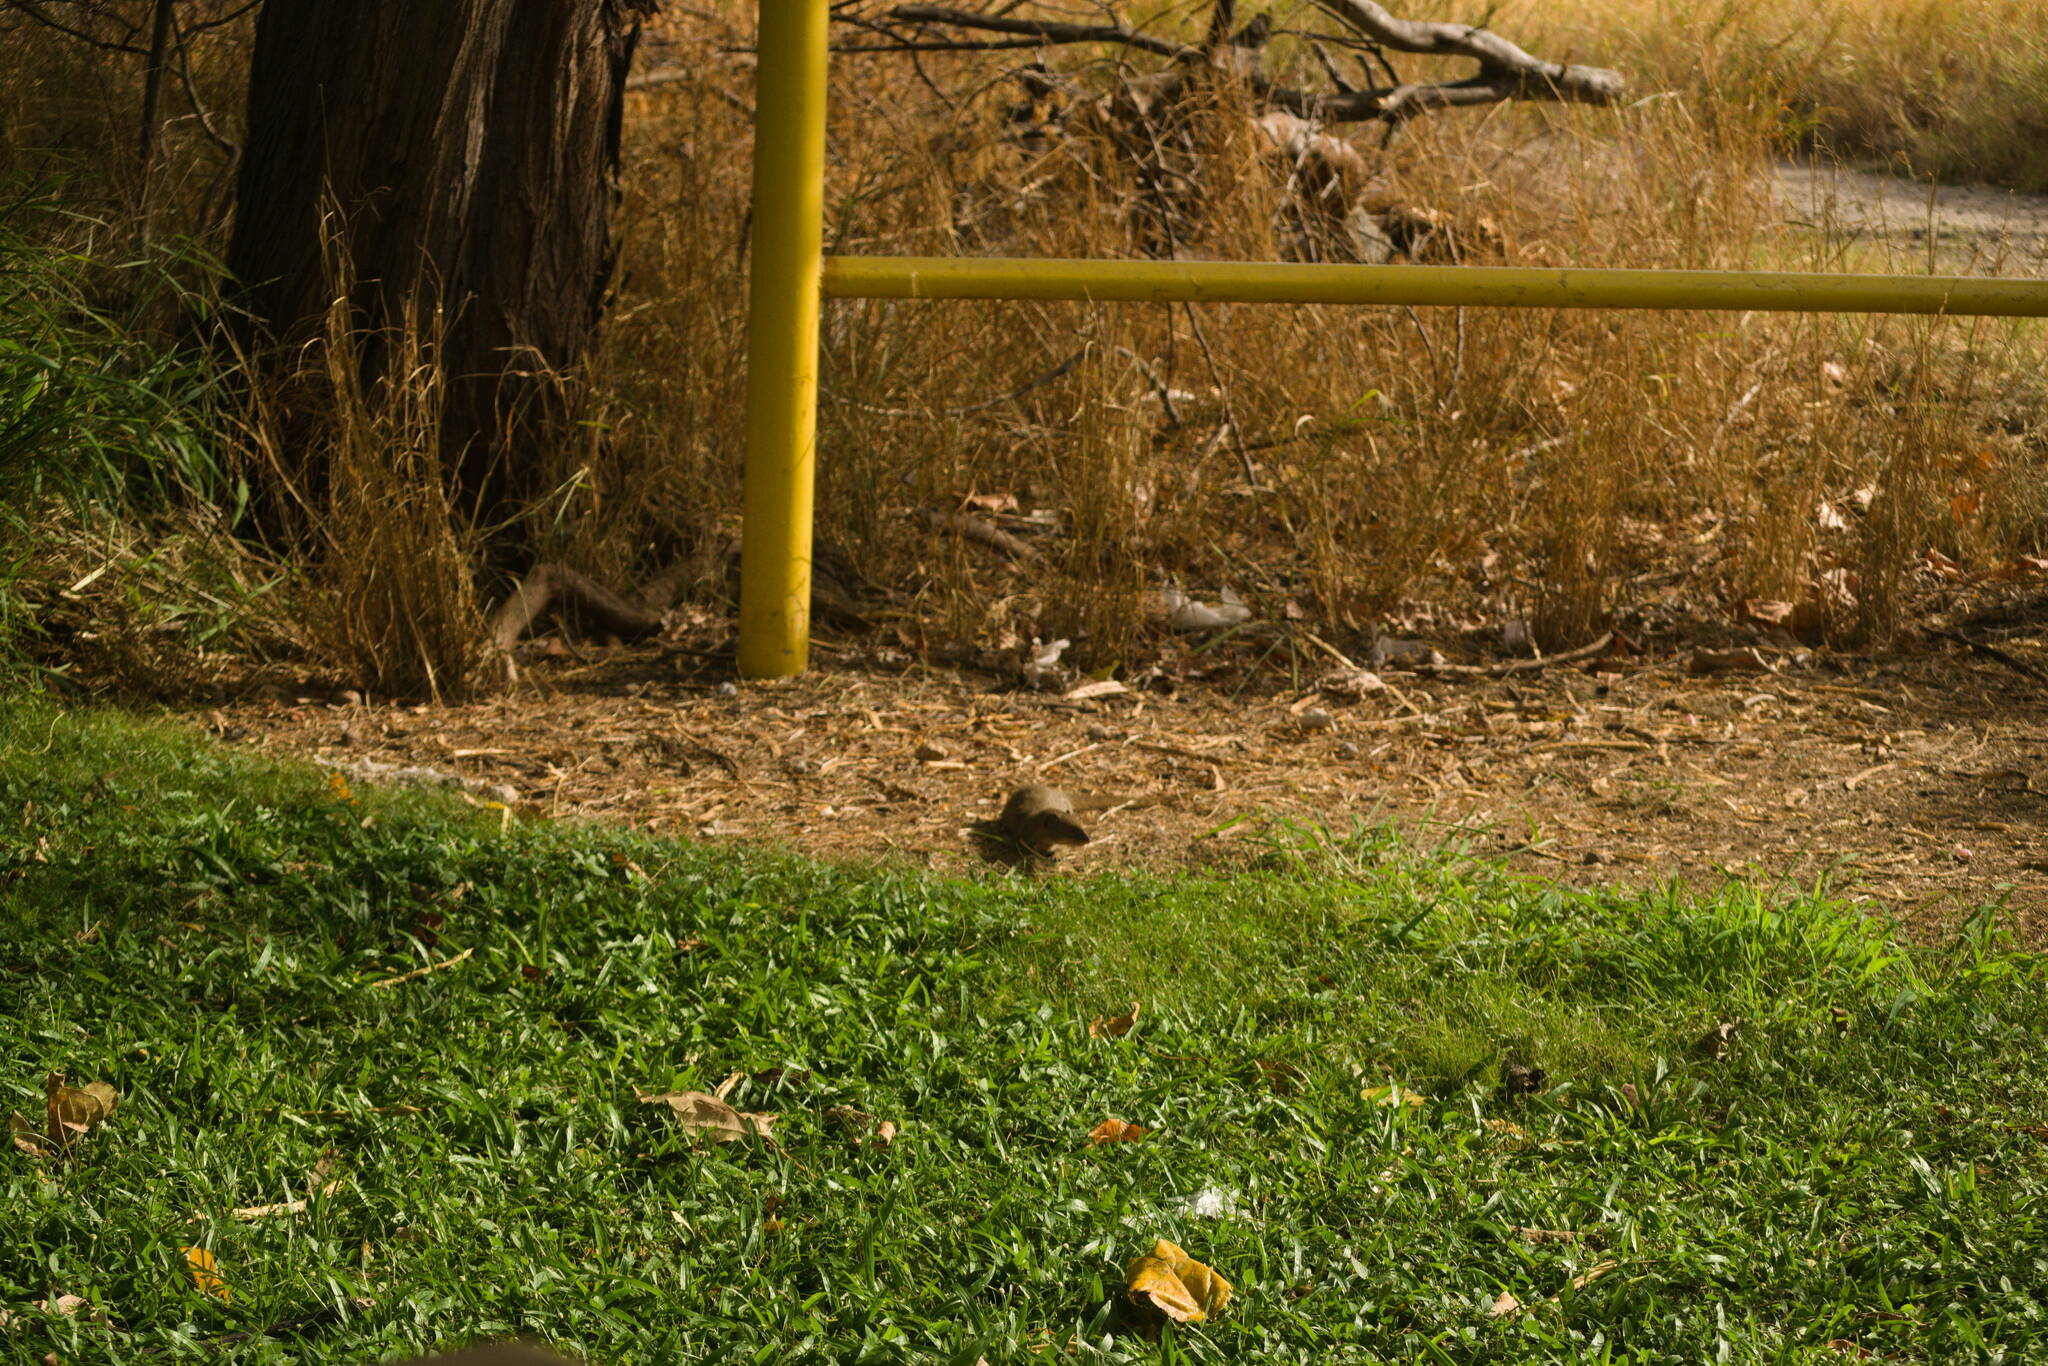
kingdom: Animalia
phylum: Chordata
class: Mammalia
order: Carnivora
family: Herpestidae
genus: Herpestes
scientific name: Herpestes javanicus
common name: Small asian mongoose
